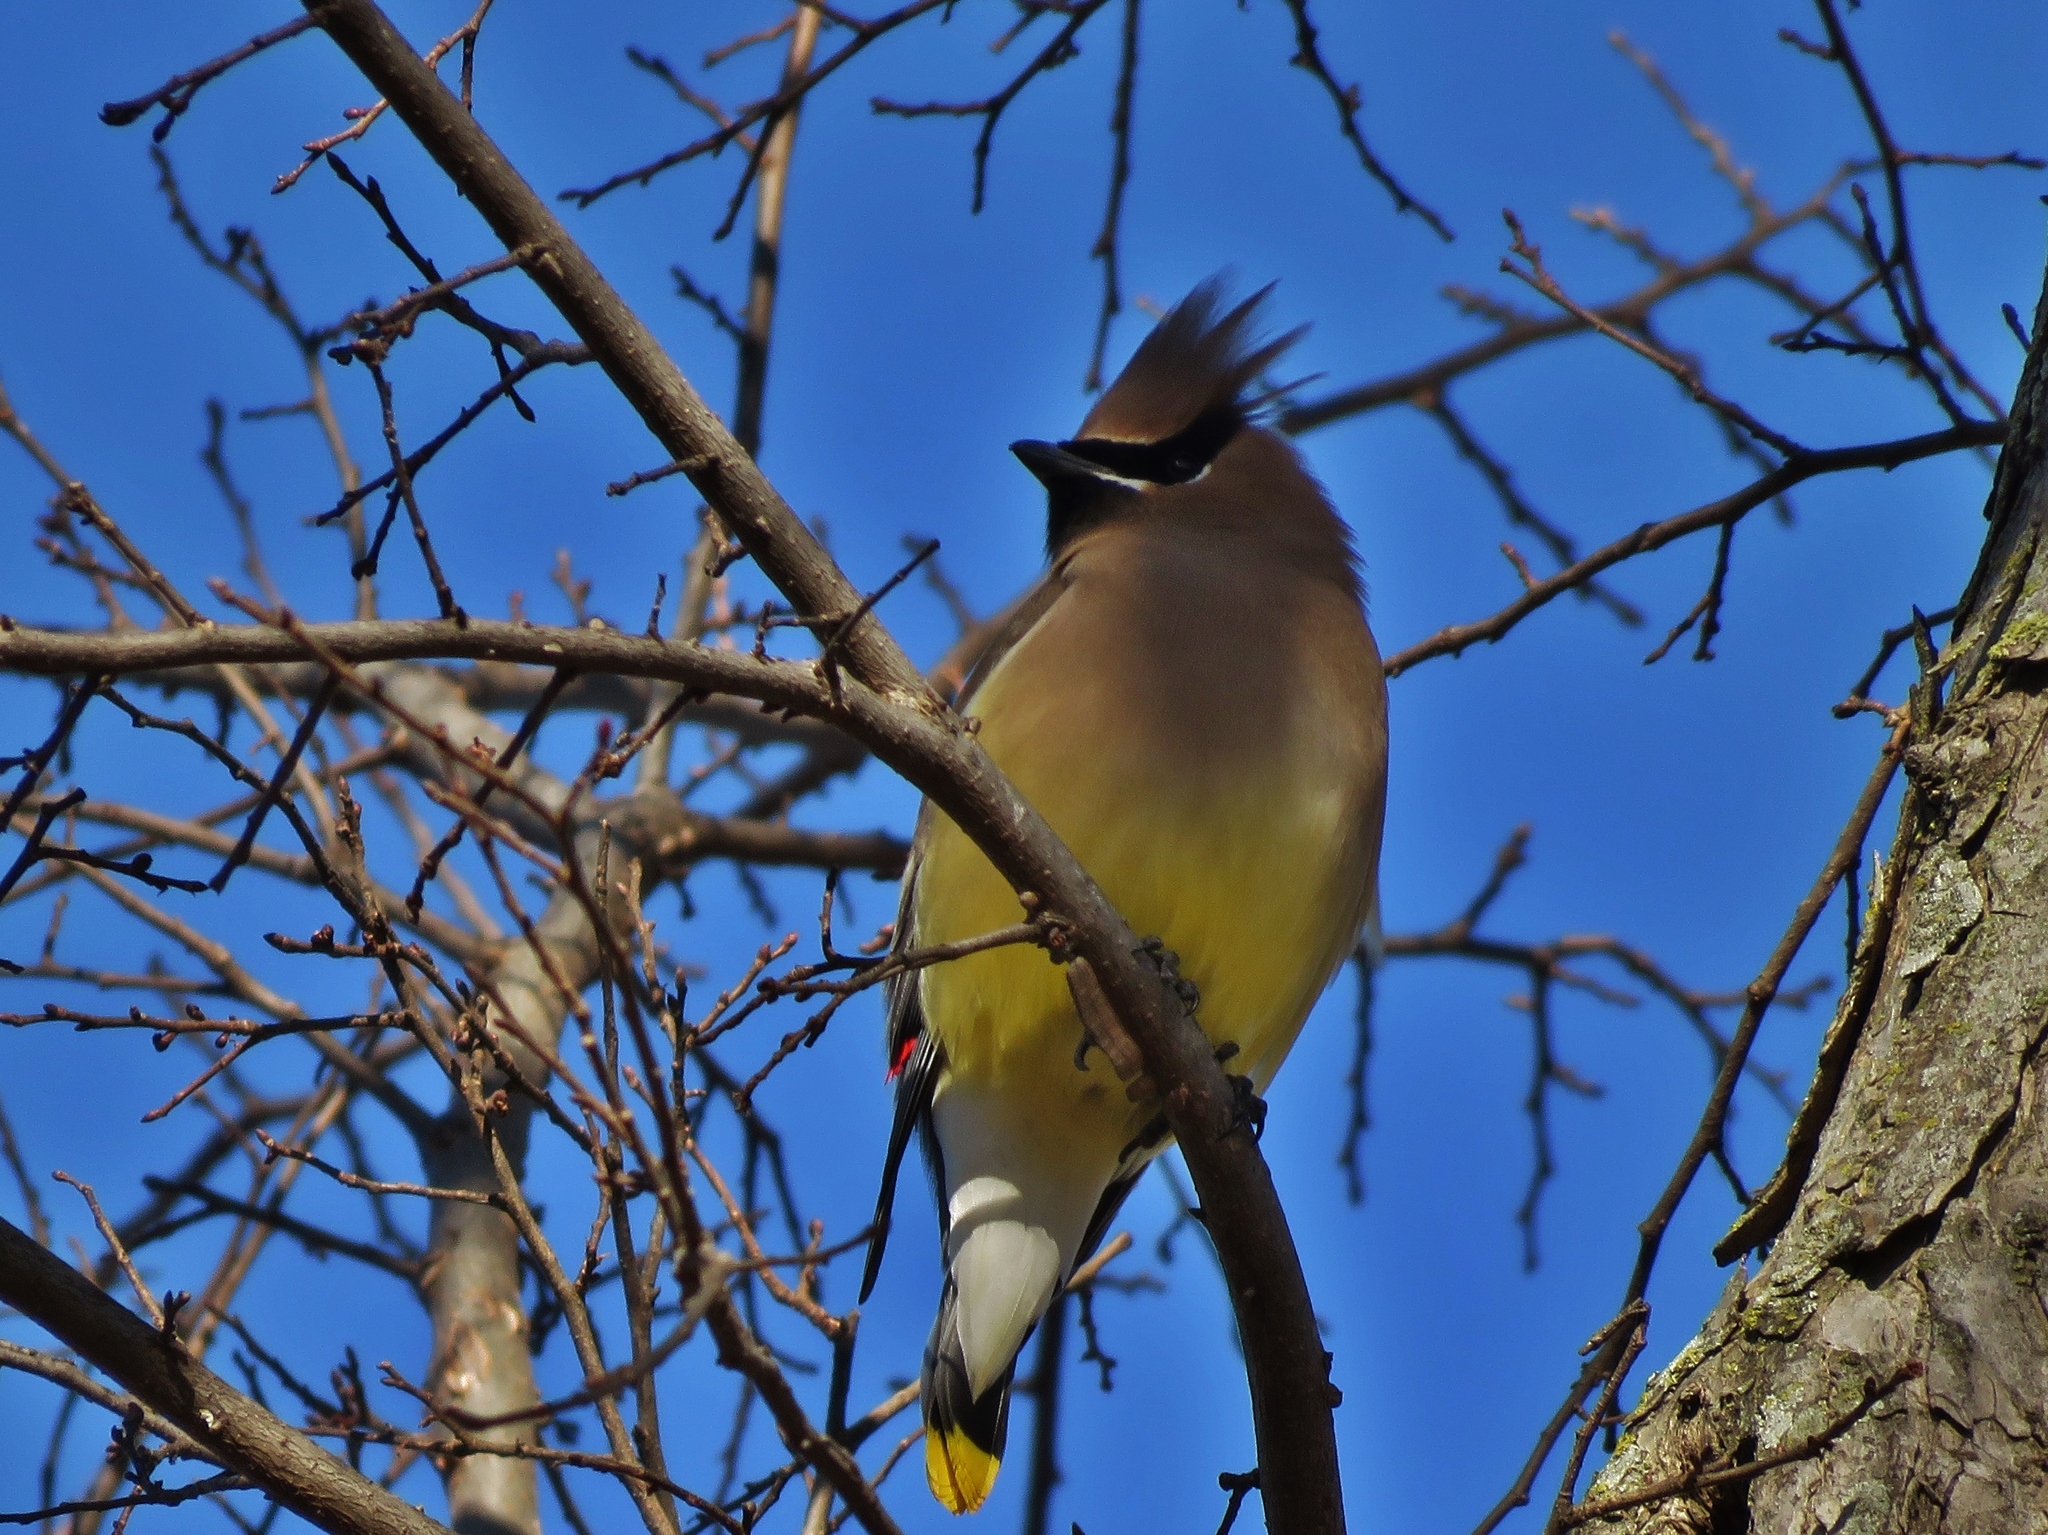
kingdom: Animalia
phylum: Chordata
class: Aves
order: Passeriformes
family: Bombycillidae
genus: Bombycilla
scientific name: Bombycilla cedrorum
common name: Cedar waxwing
